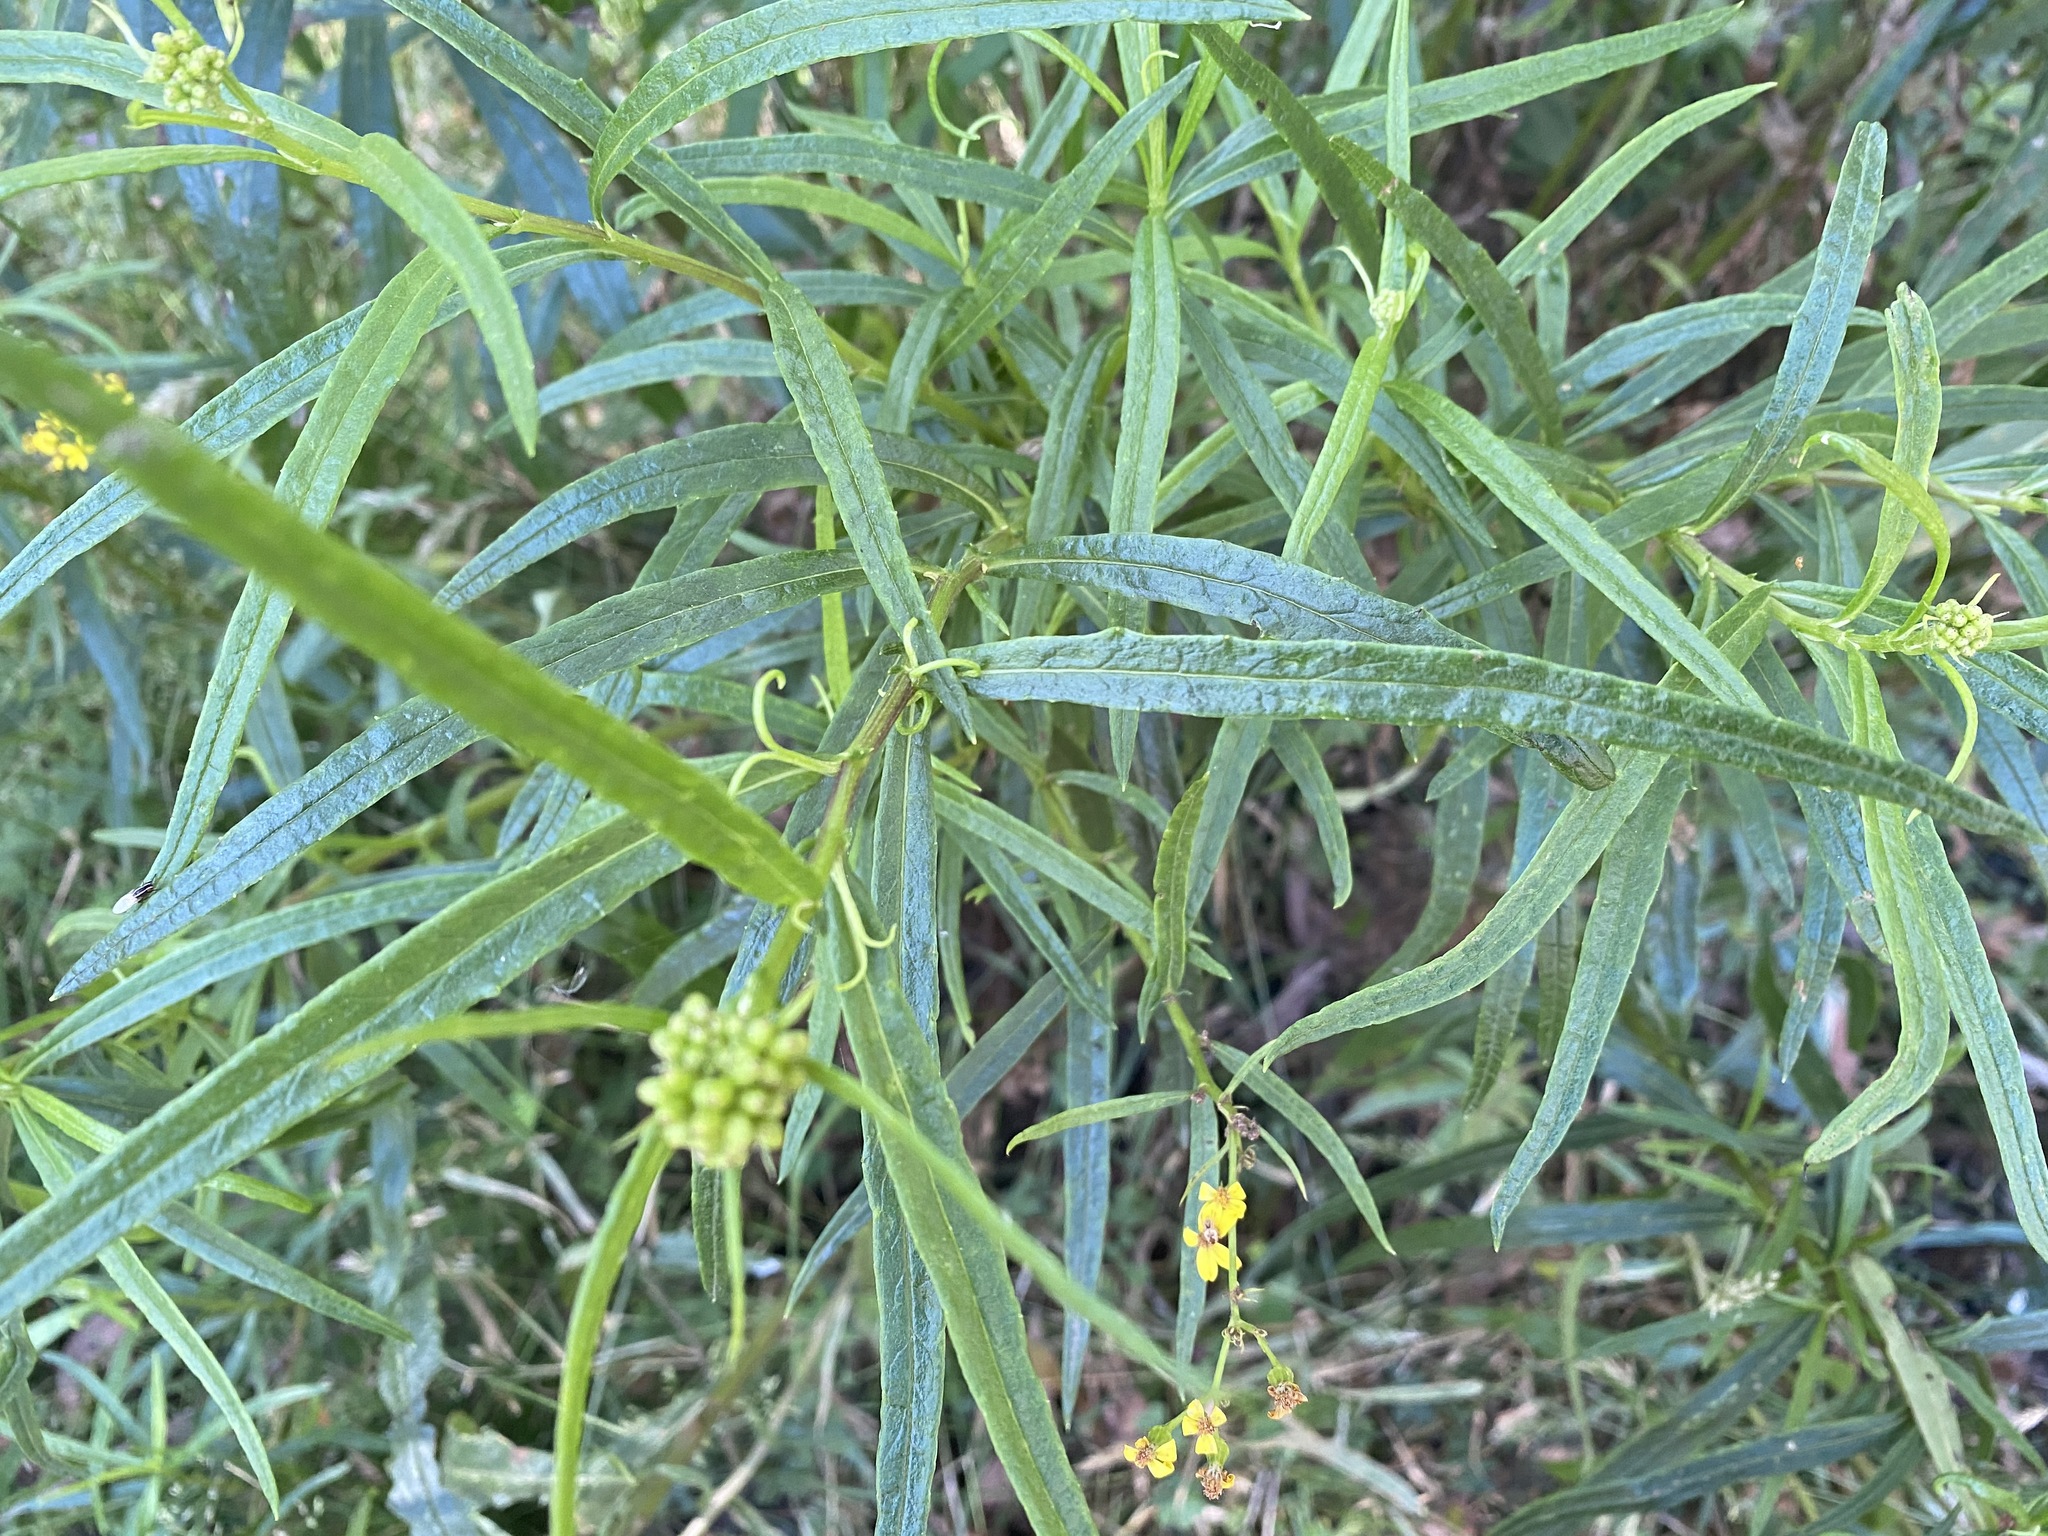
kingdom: Plantae
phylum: Tracheophyta
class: Magnoliopsida
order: Asterales
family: Asteraceae
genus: Senecio
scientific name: Senecio linearifolius
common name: Fireweed groundsel
